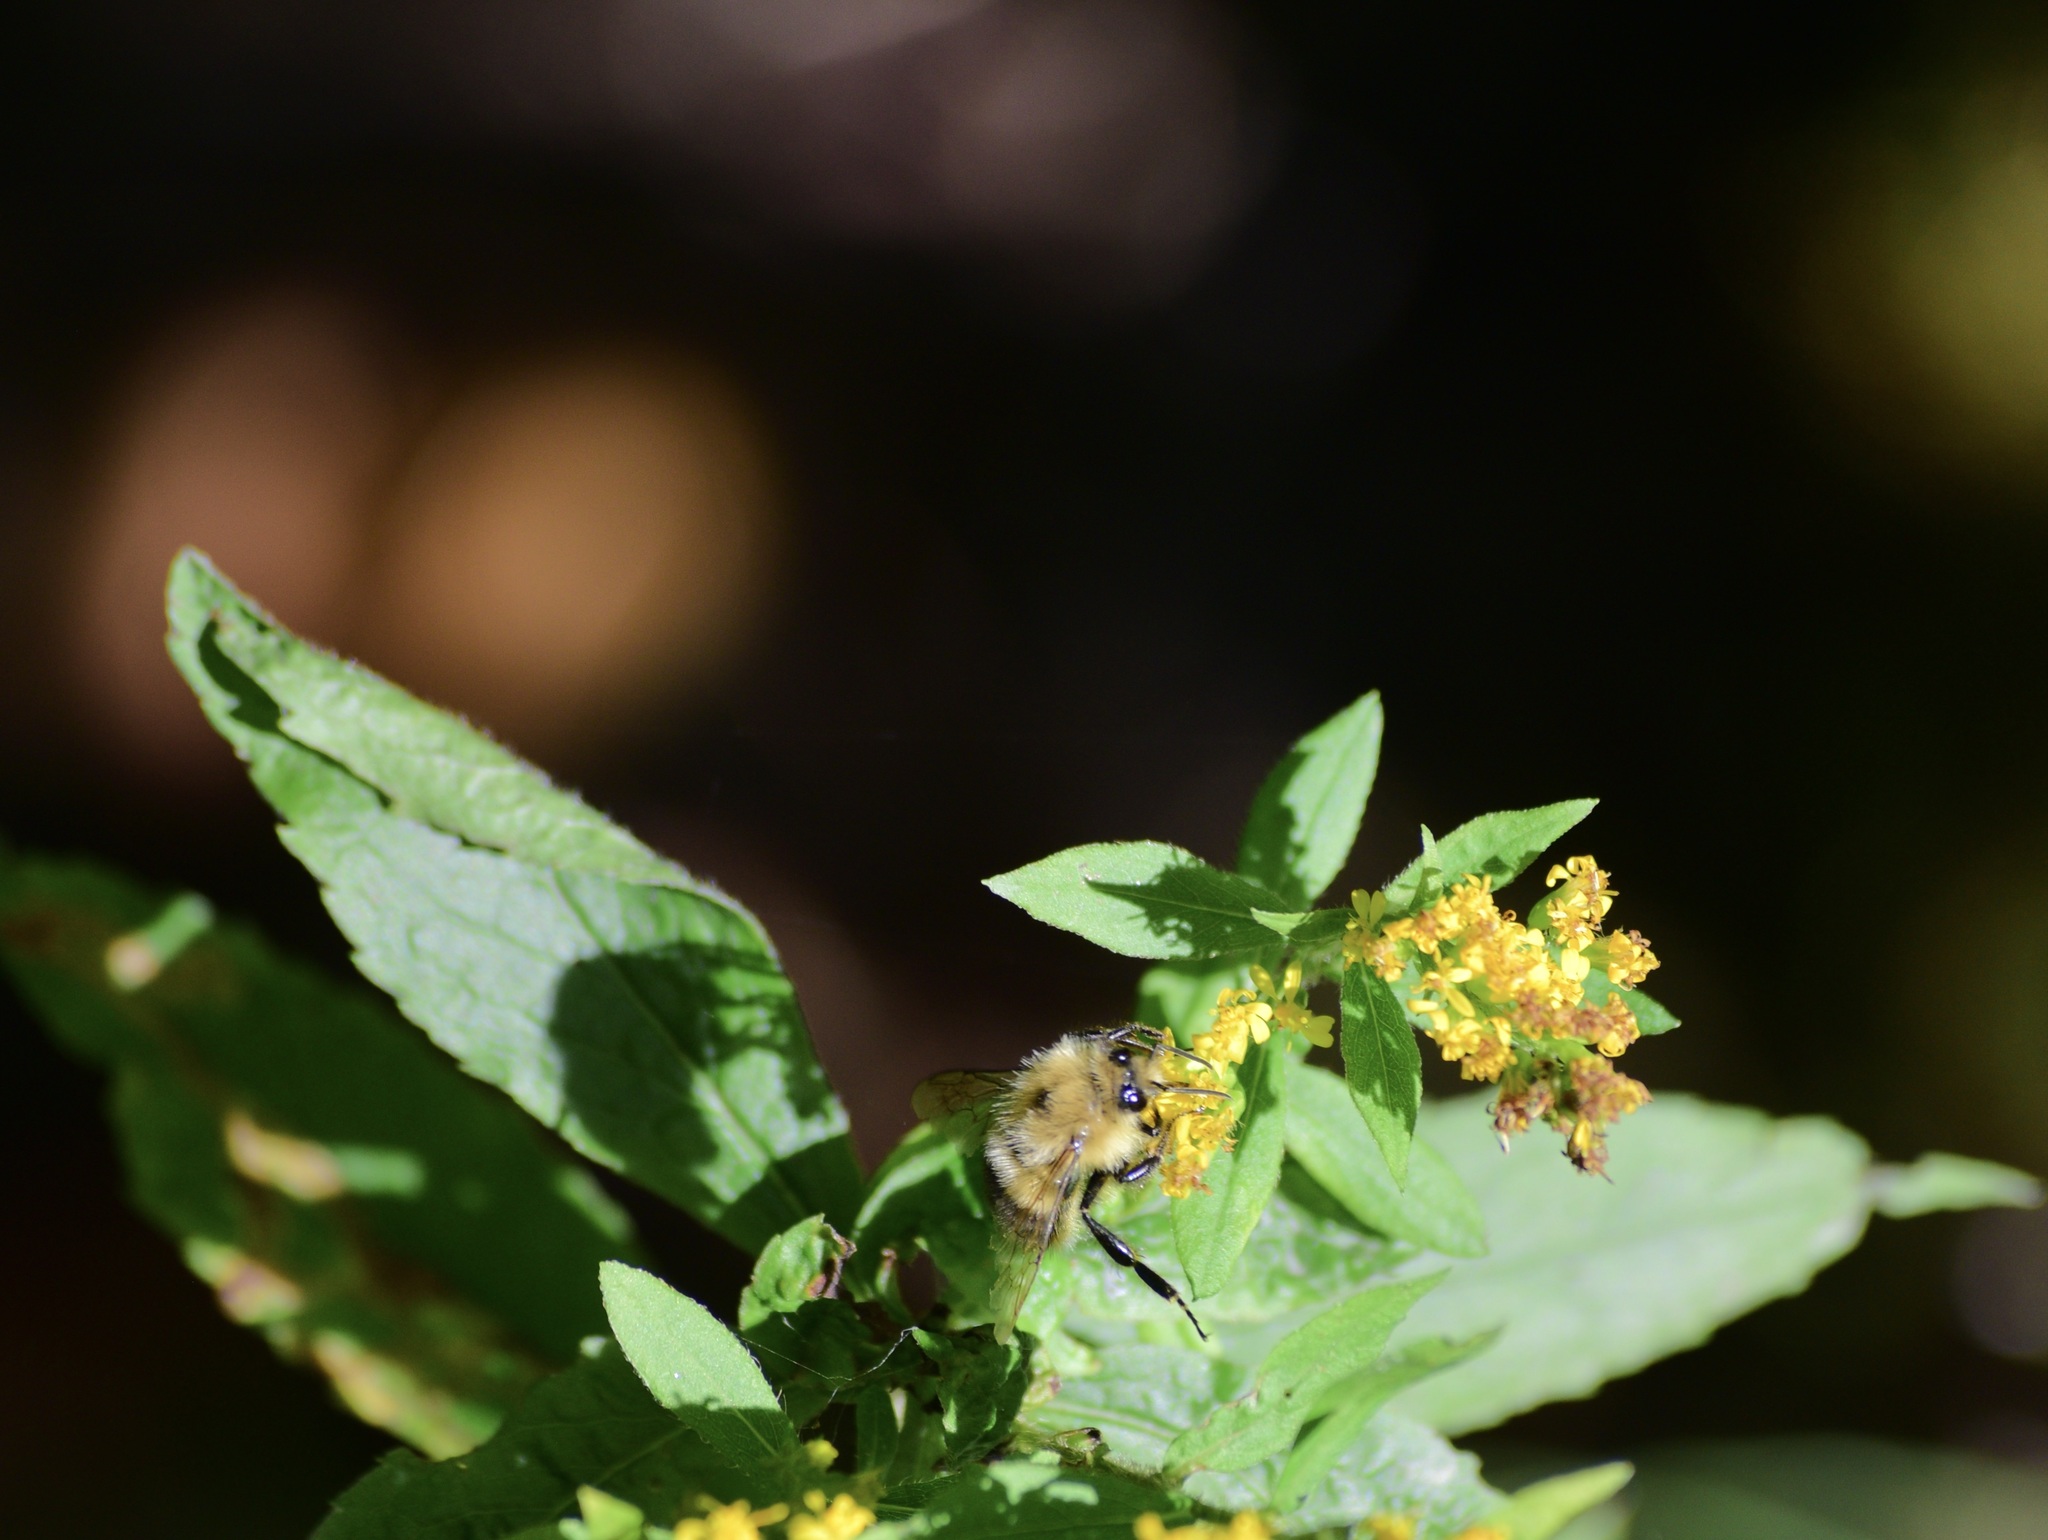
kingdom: Animalia
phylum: Arthropoda
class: Insecta
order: Hymenoptera
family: Apidae
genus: Pyrobombus
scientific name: Pyrobombus
